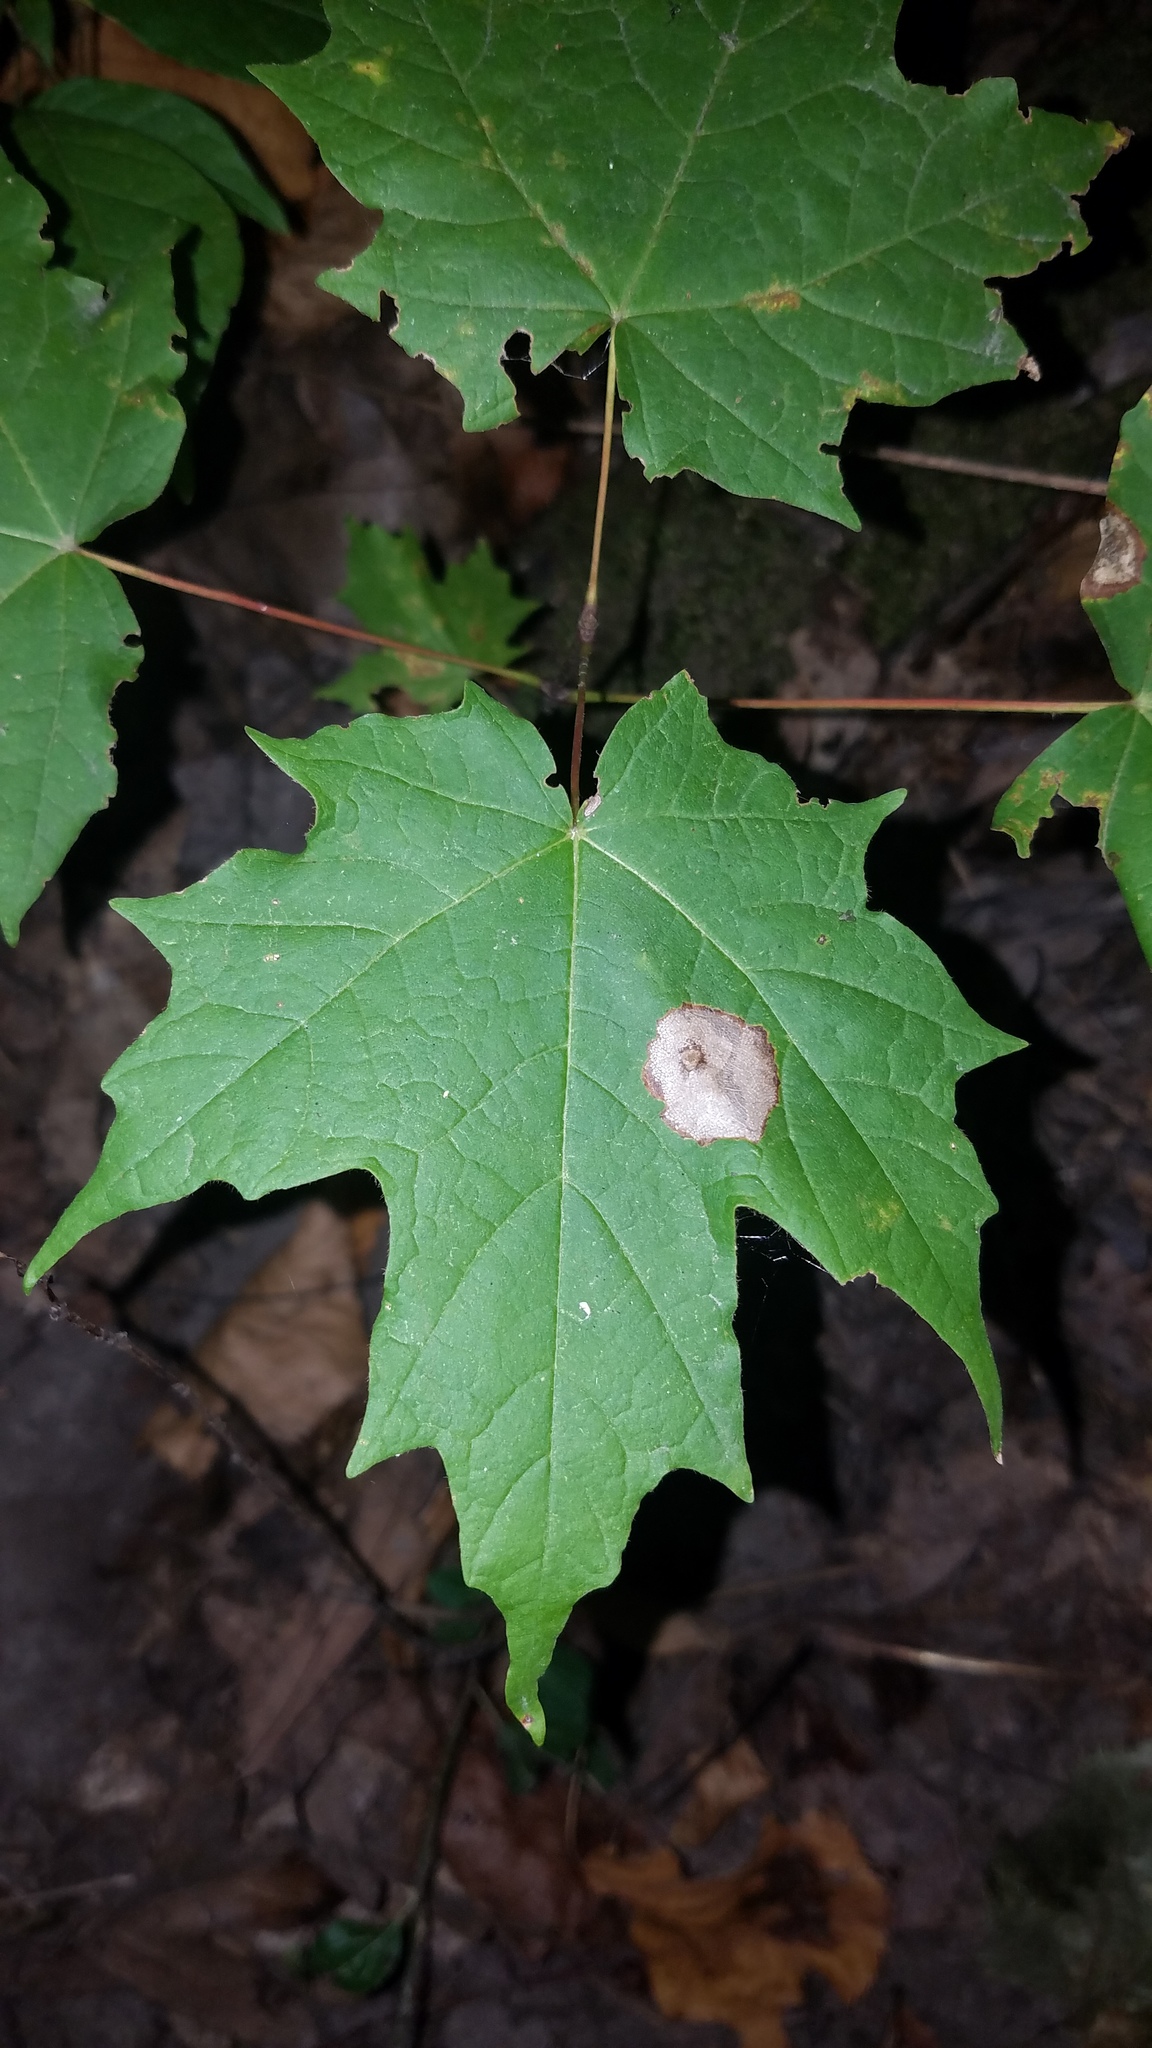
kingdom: Animalia
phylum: Arthropoda
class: Insecta
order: Diptera
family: Cecidomyiidae
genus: Acericecis
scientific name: Acericecis ocellaris
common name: Ocellate gall midge
